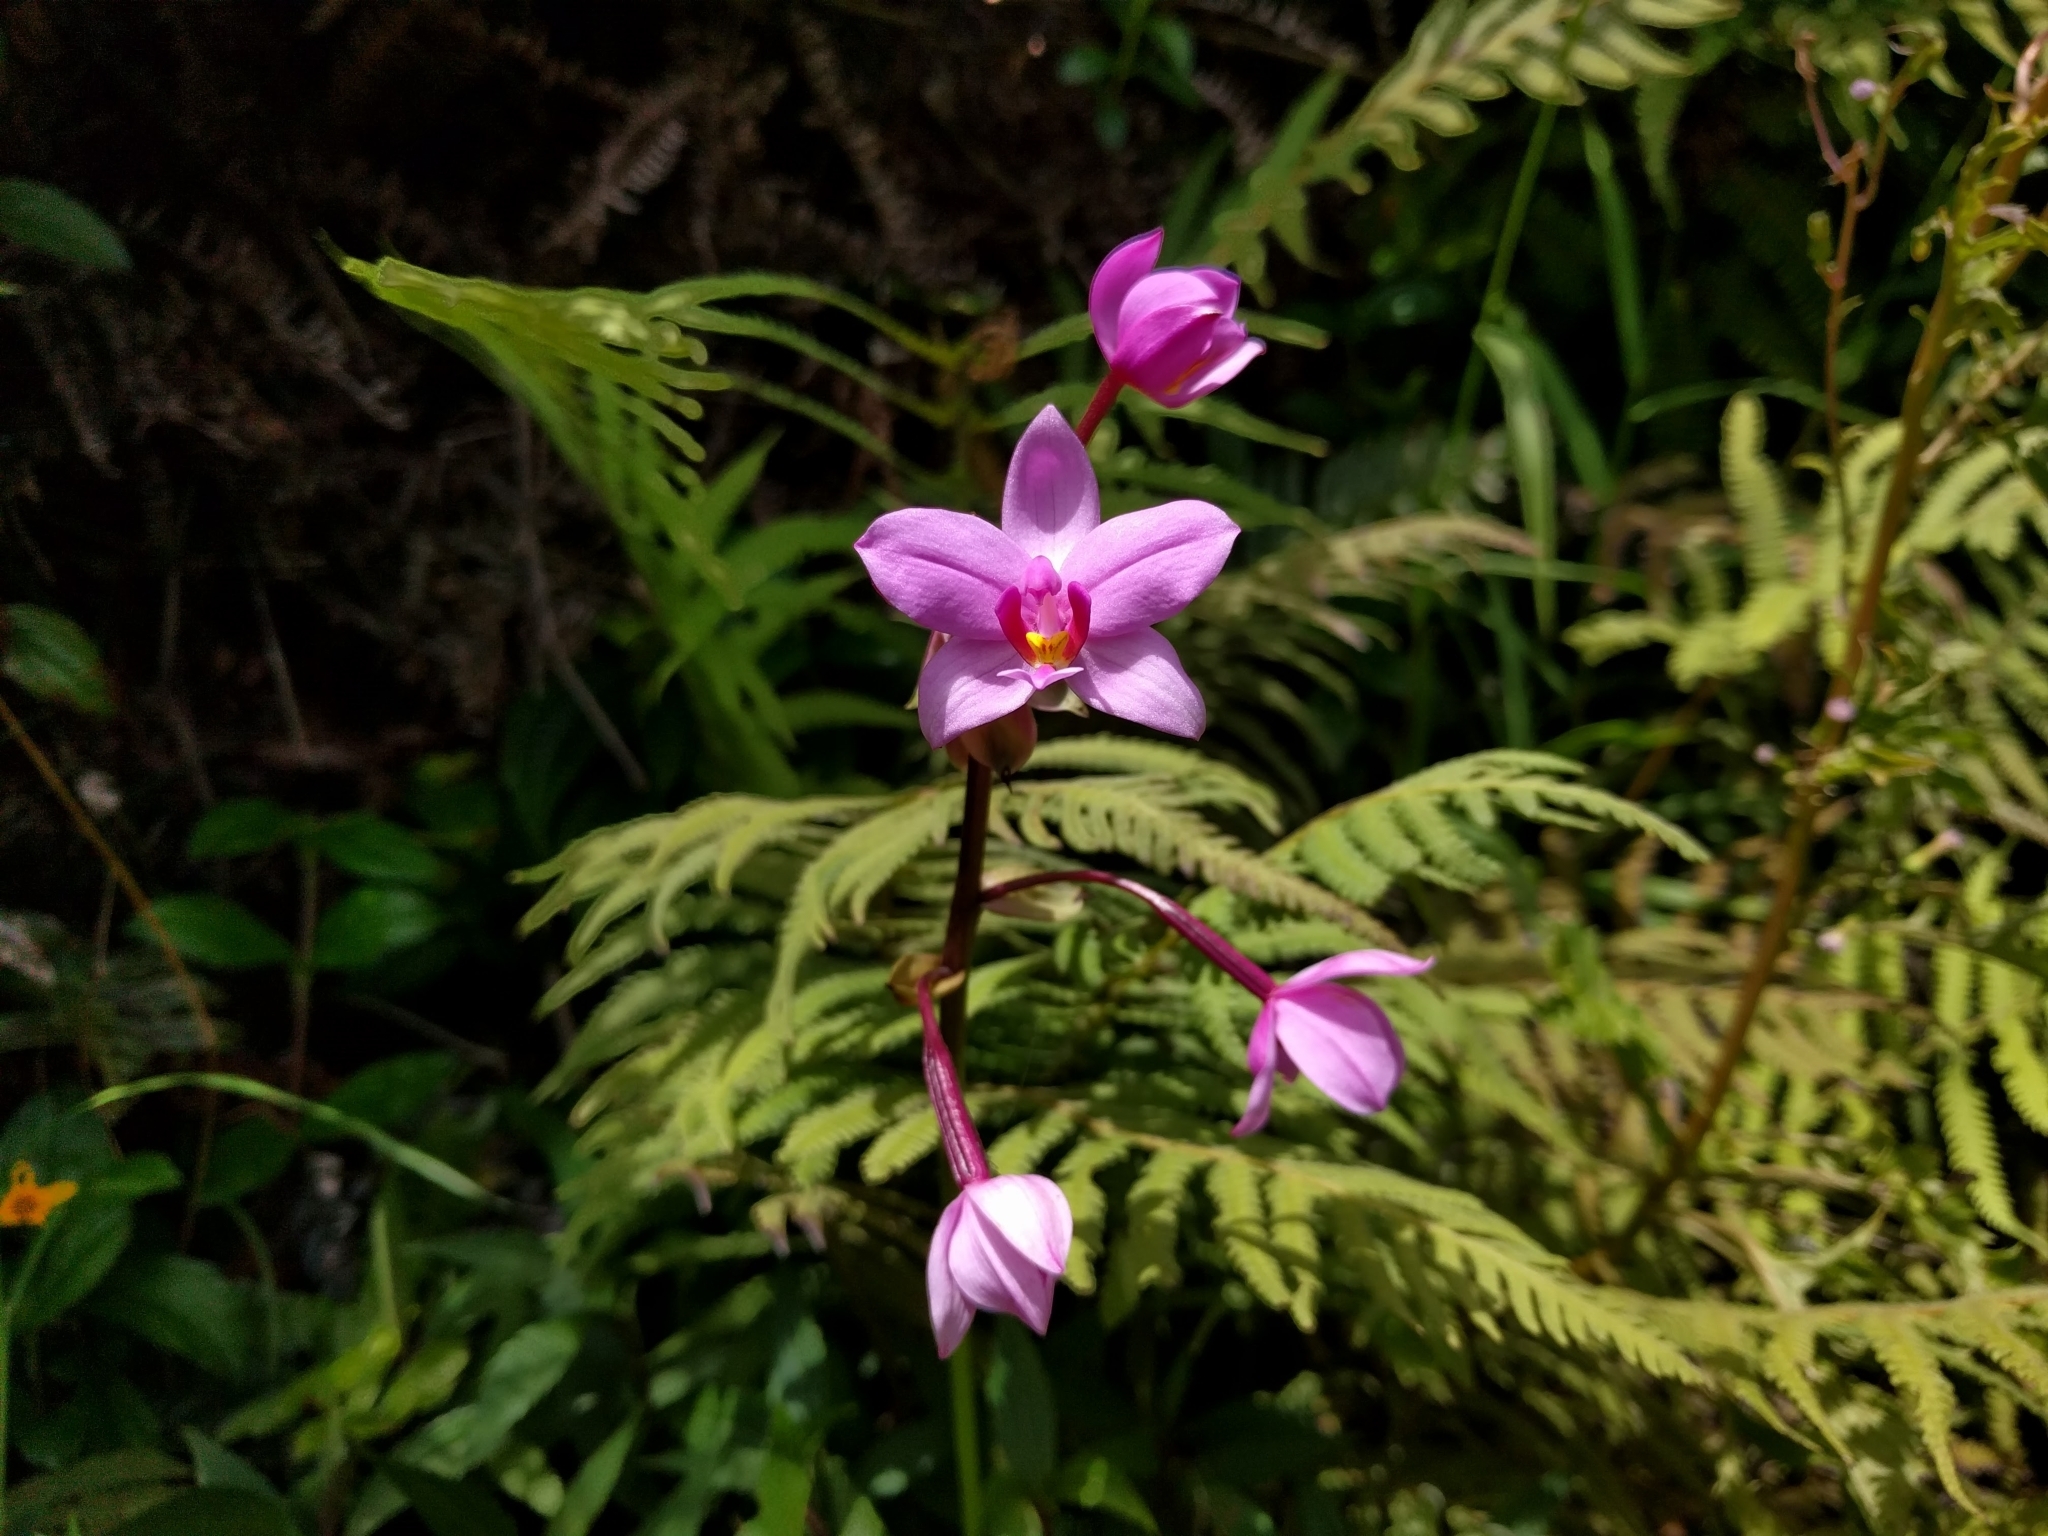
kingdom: Plantae
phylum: Tracheophyta
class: Liliopsida
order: Asparagales
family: Orchidaceae
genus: Spathoglottis
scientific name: Spathoglottis plicata
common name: Philippine ground orchid
